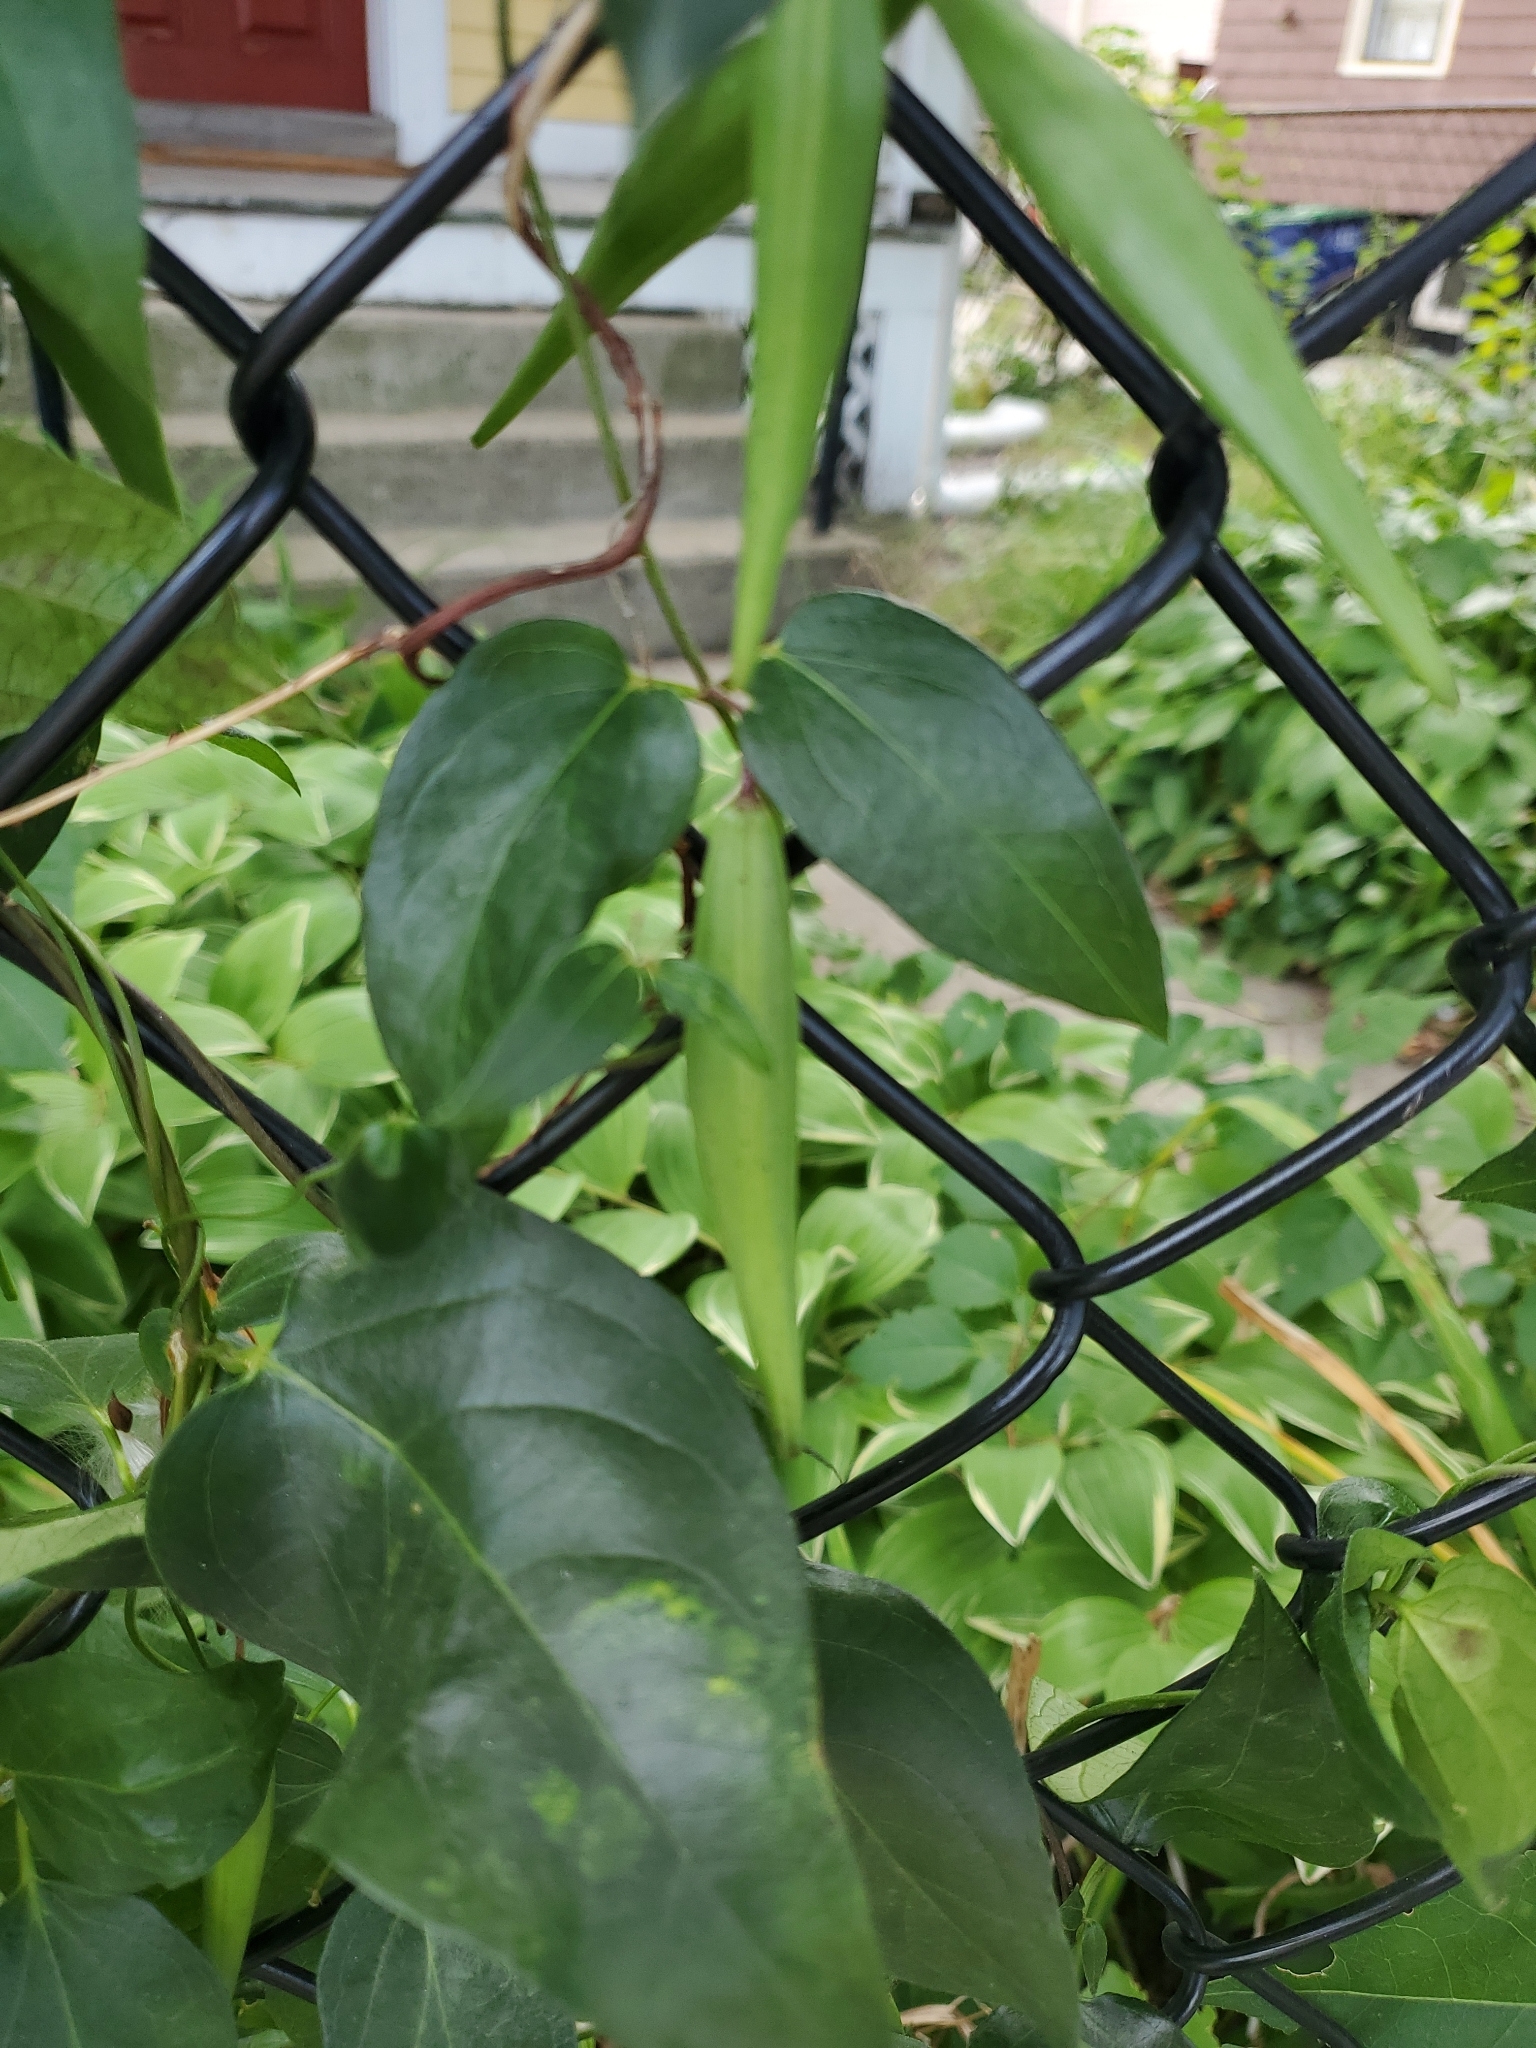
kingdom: Plantae
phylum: Tracheophyta
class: Magnoliopsida
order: Gentianales
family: Apocynaceae
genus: Vincetoxicum
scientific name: Vincetoxicum nigrum
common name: Black swallow-wort
